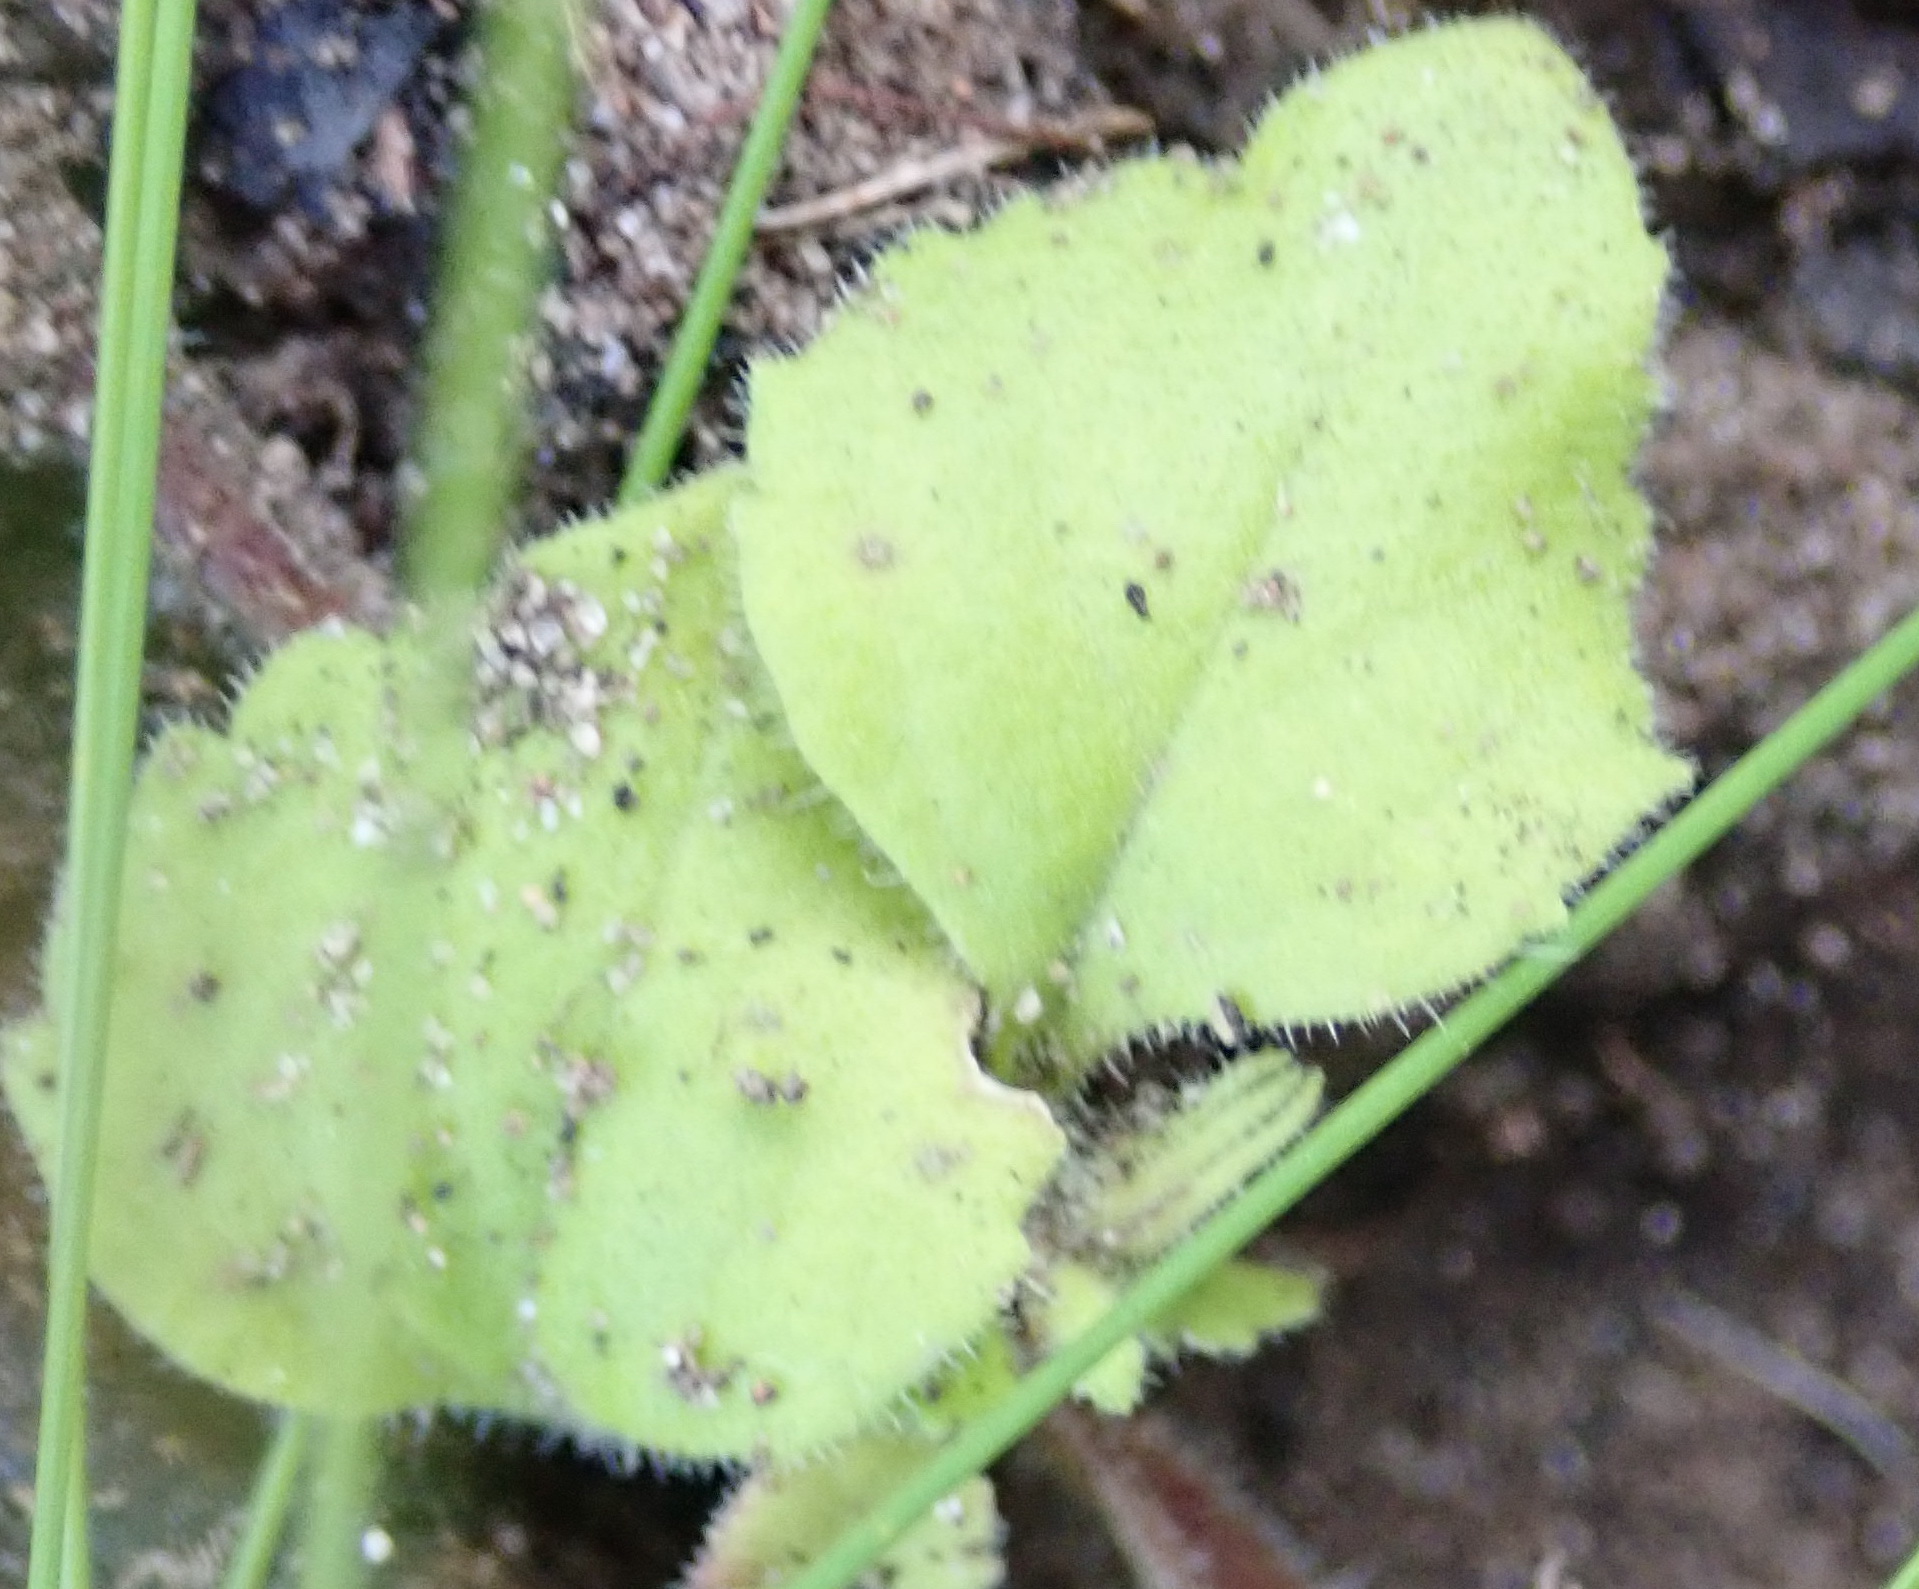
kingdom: Plantae
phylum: Tracheophyta
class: Magnoliopsida
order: Lamiales
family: Scrophulariaceae
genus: Chaenostoma
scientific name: Chaenostoma campanulatum
